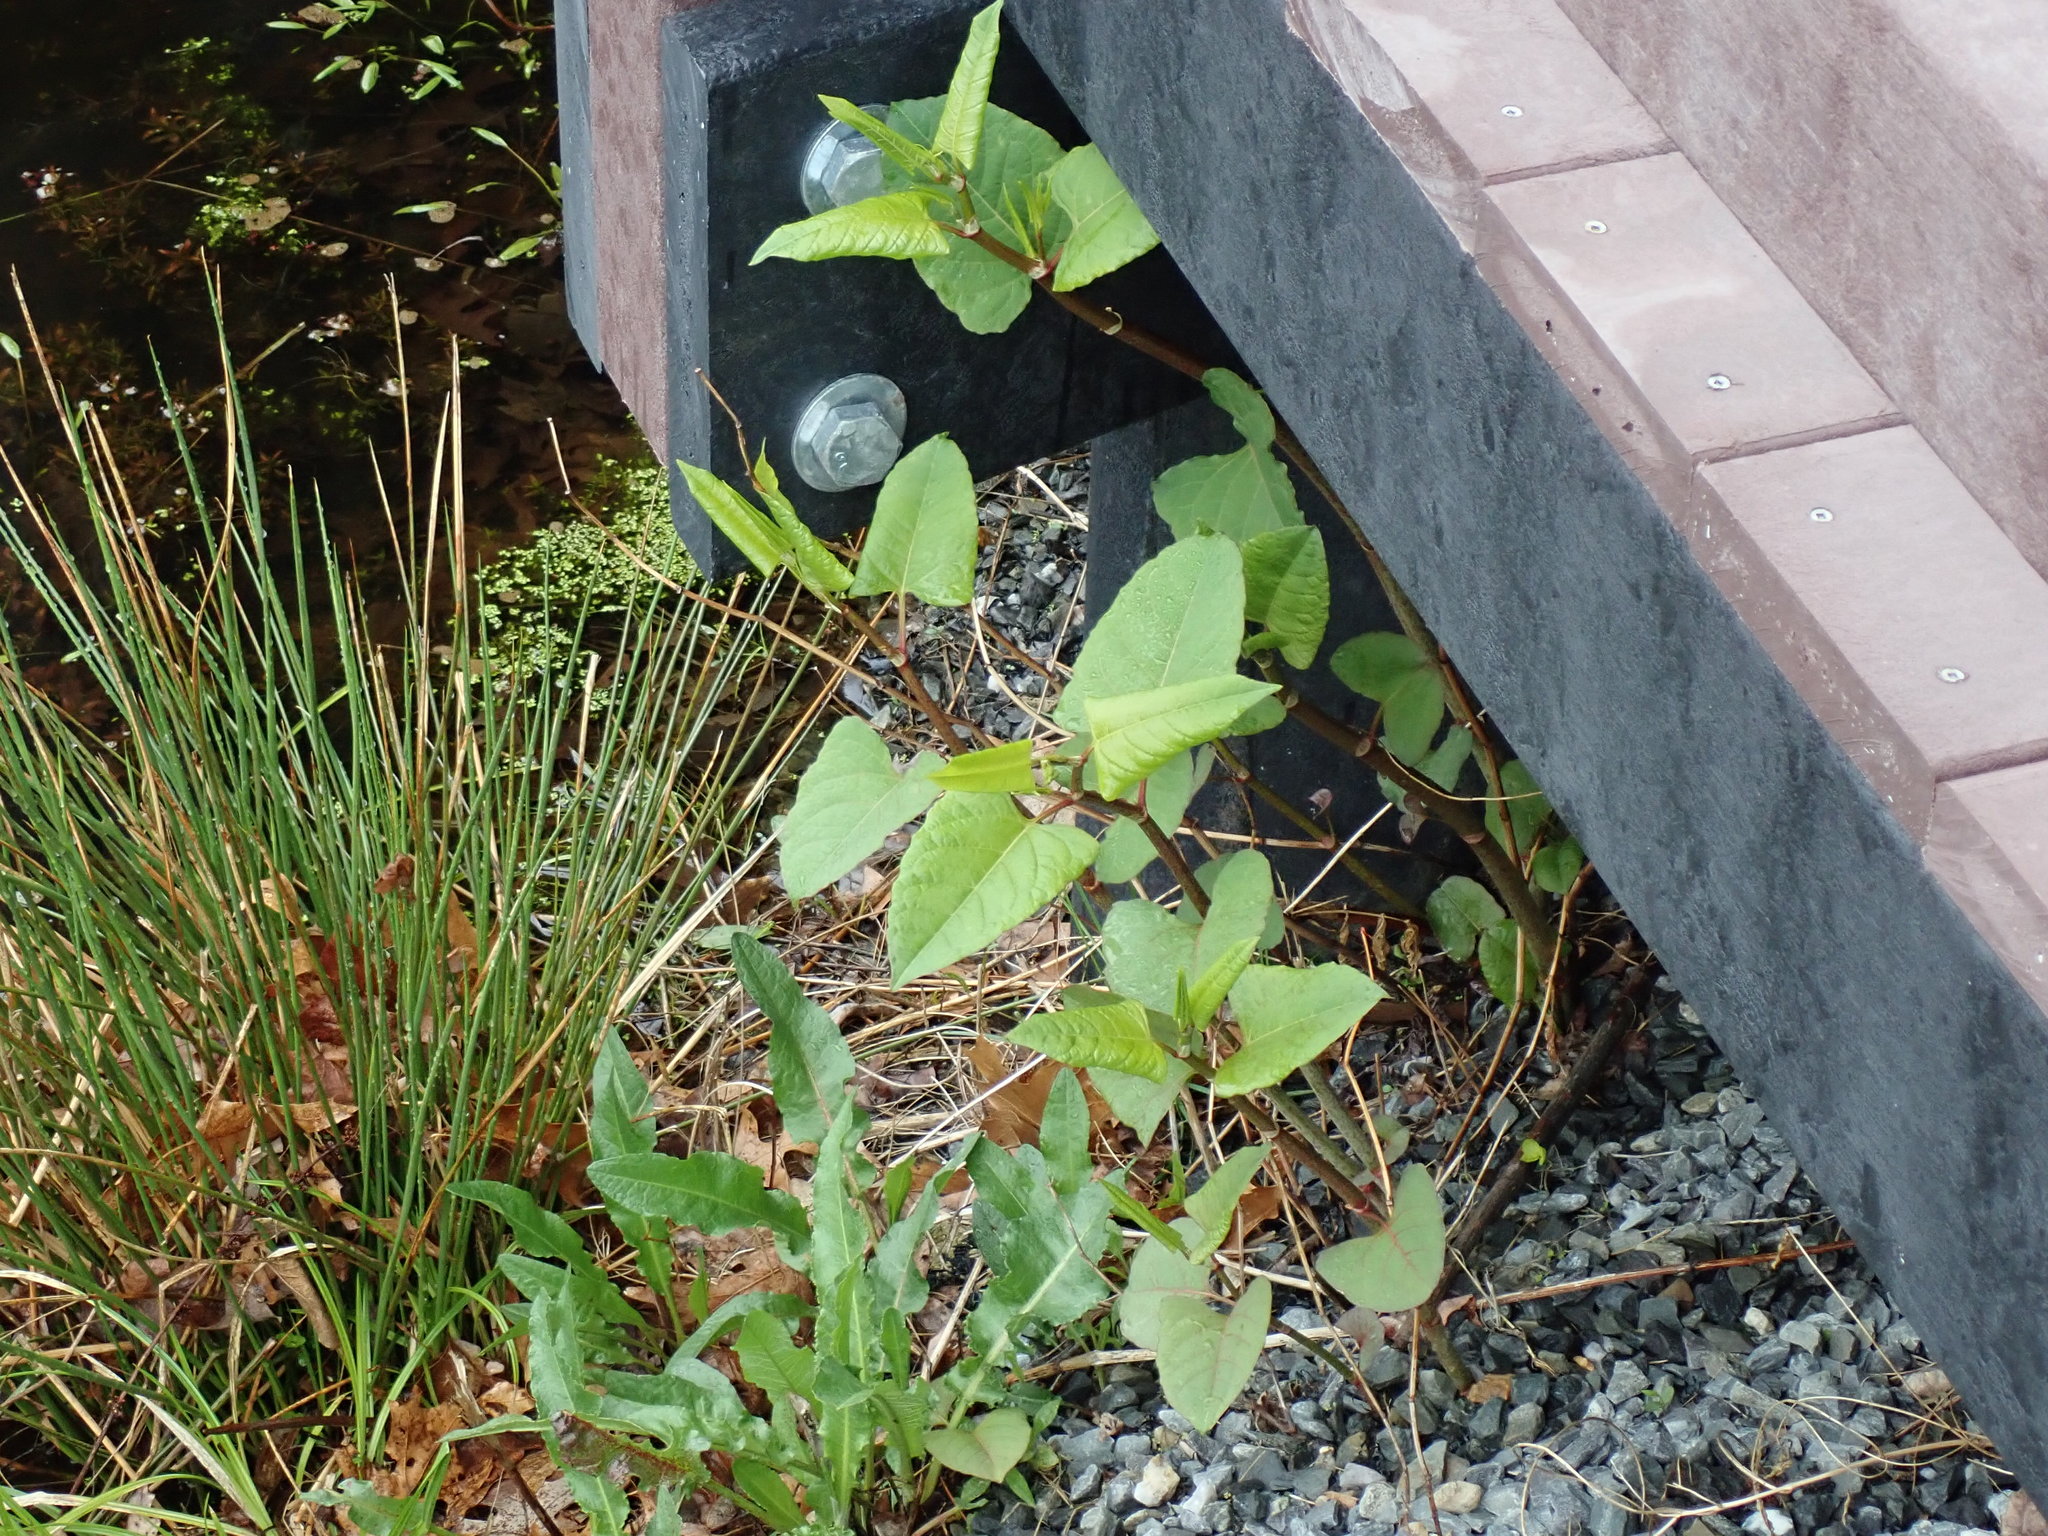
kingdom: Plantae
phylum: Tracheophyta
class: Magnoliopsida
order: Caryophyllales
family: Polygonaceae
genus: Reynoutria
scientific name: Reynoutria japonica
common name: Japanese knotweed
